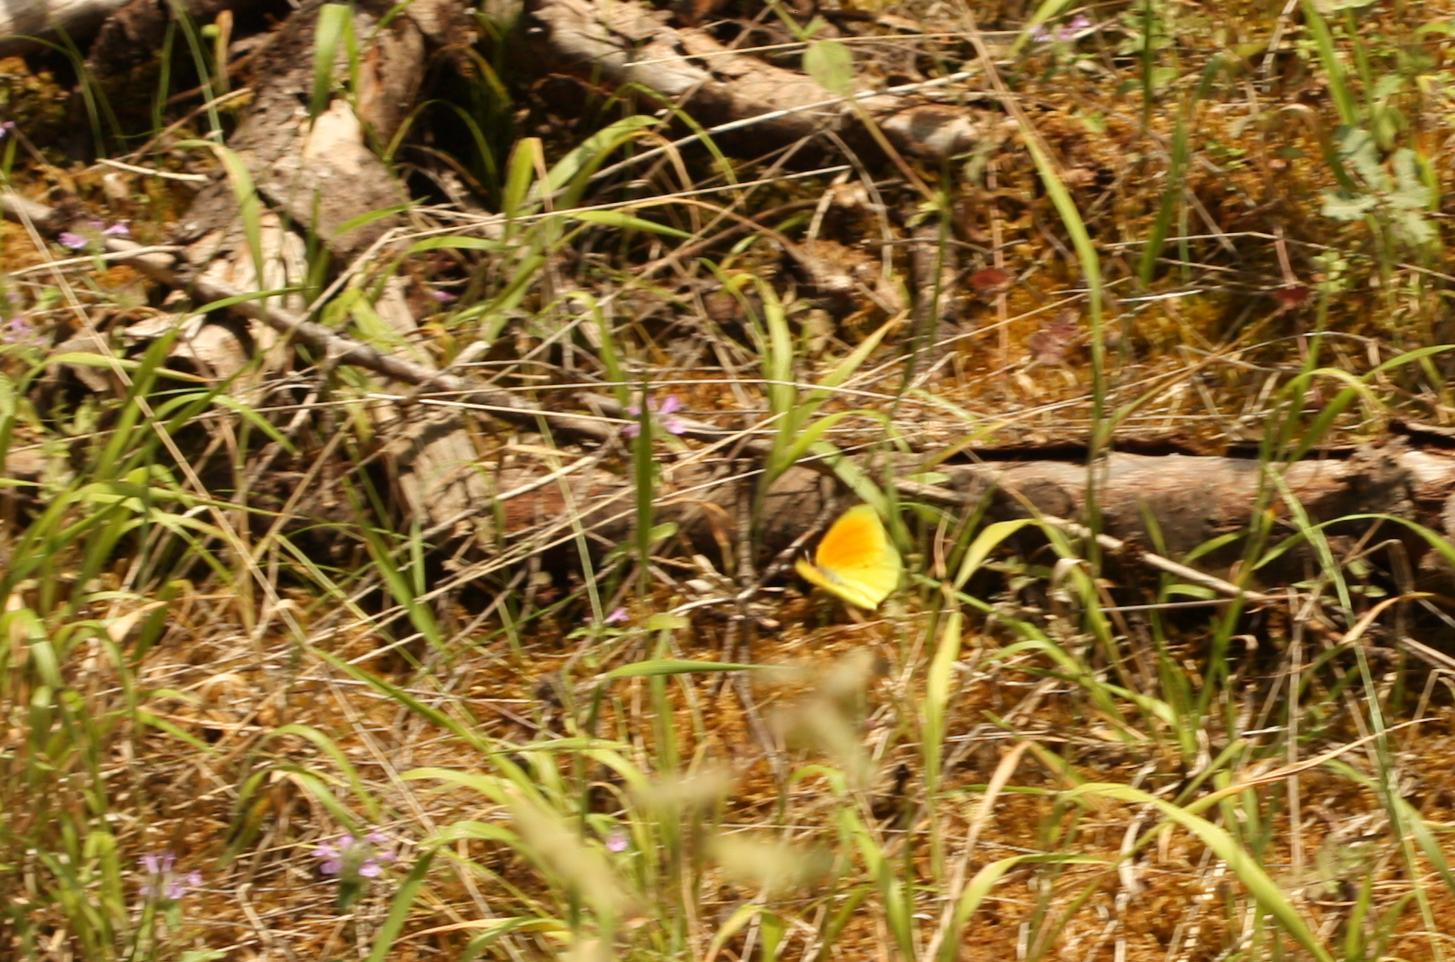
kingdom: Animalia
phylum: Arthropoda
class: Insecta
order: Lepidoptera
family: Pieridae
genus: Gonepteryx
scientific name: Gonepteryx cleopatra
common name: Cleopatra
